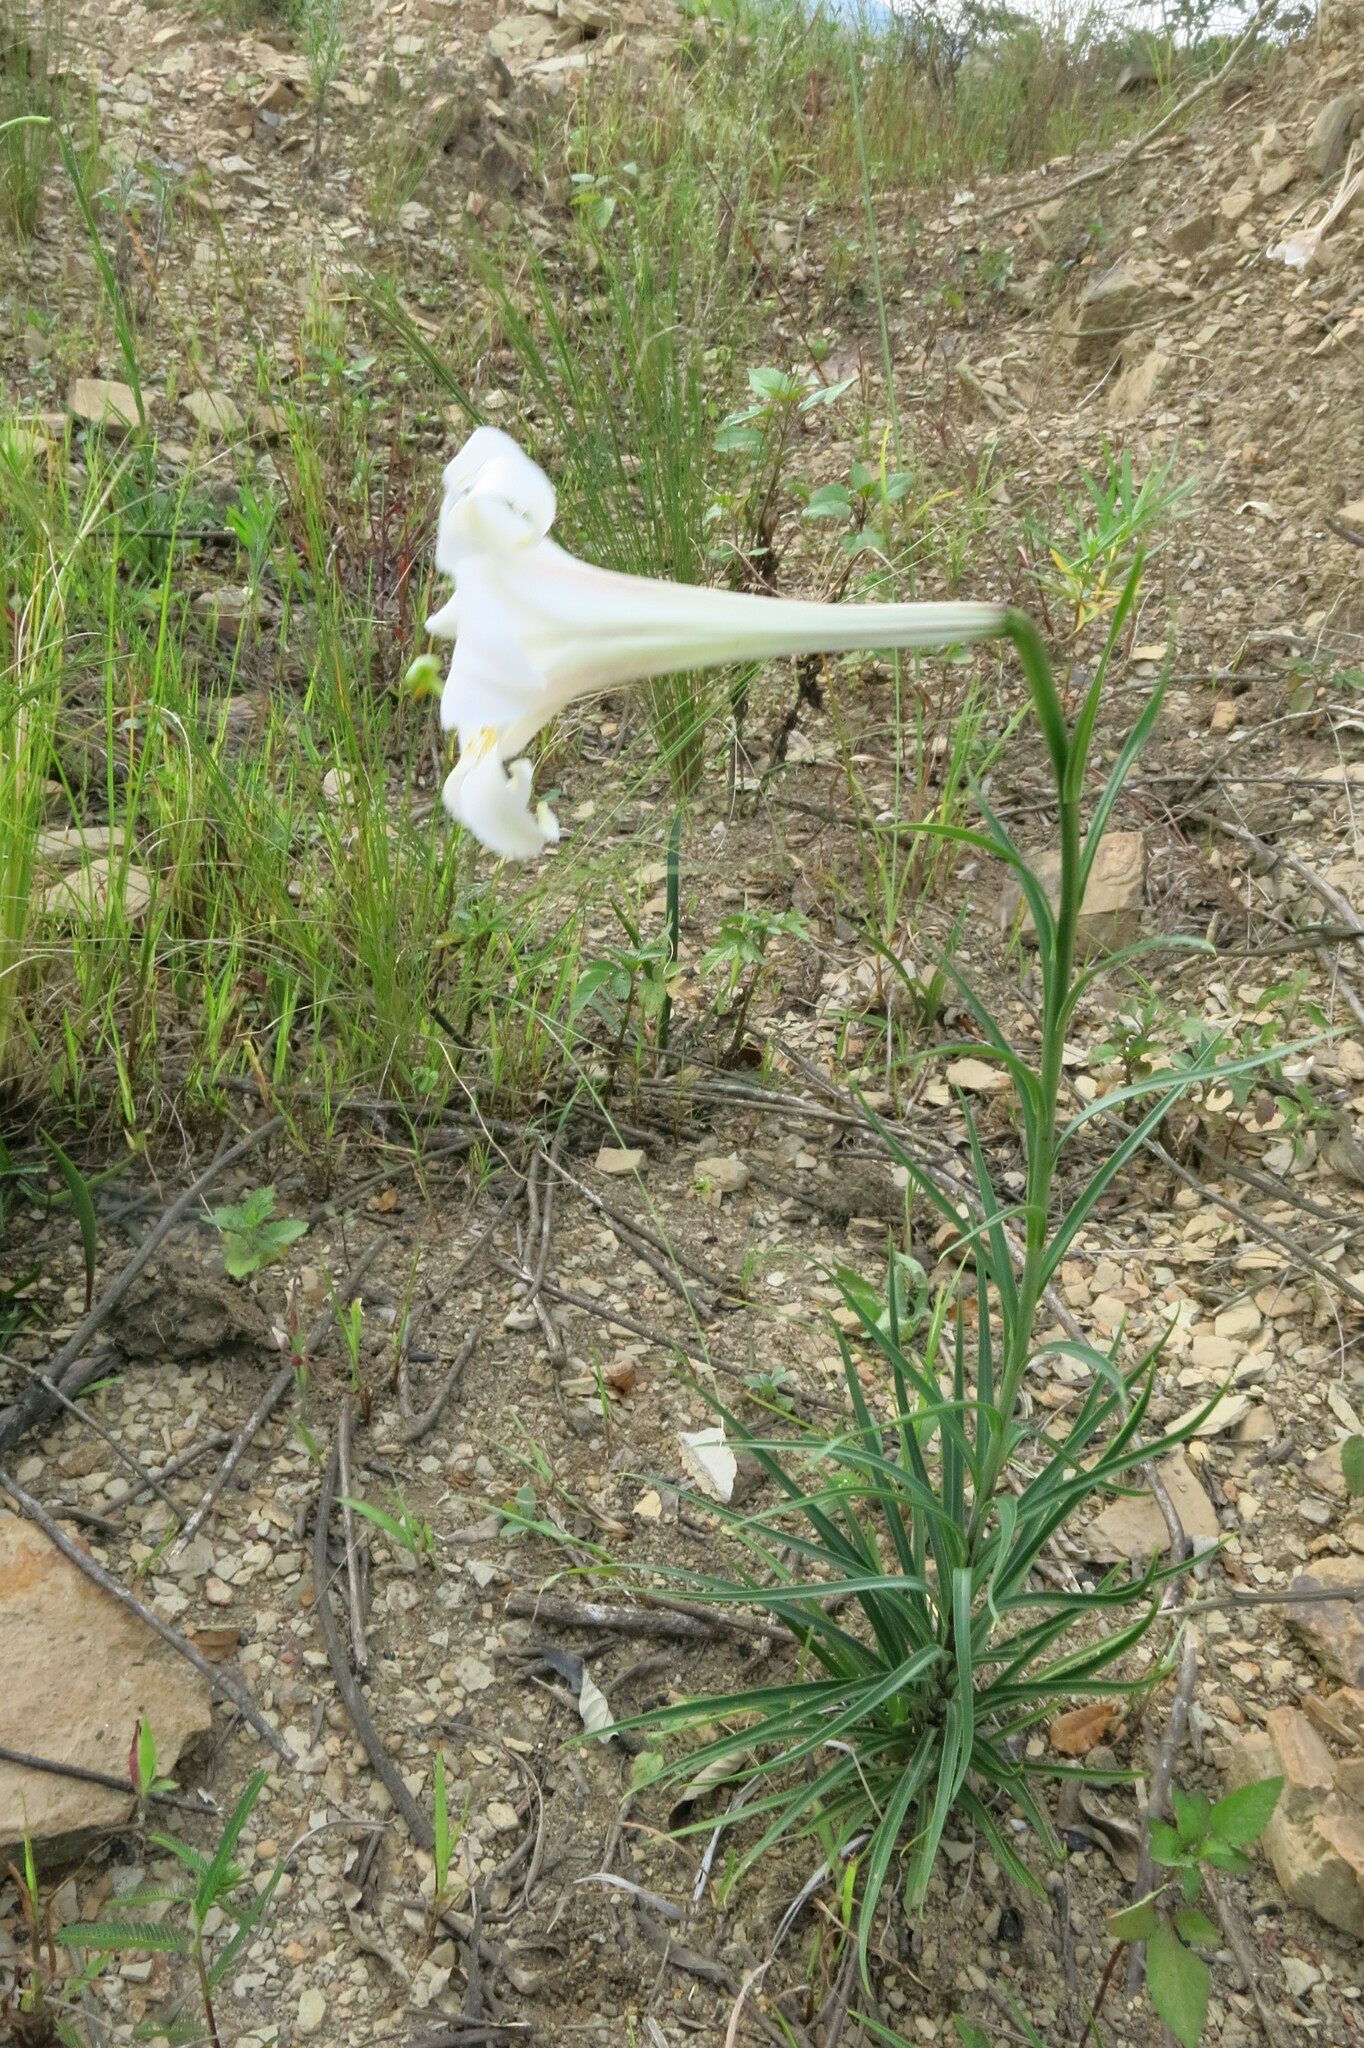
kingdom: Plantae
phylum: Tracheophyta
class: Liliopsida
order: Liliales
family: Liliaceae
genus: Lilium
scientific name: Lilium formosanum
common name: Formosa lily
